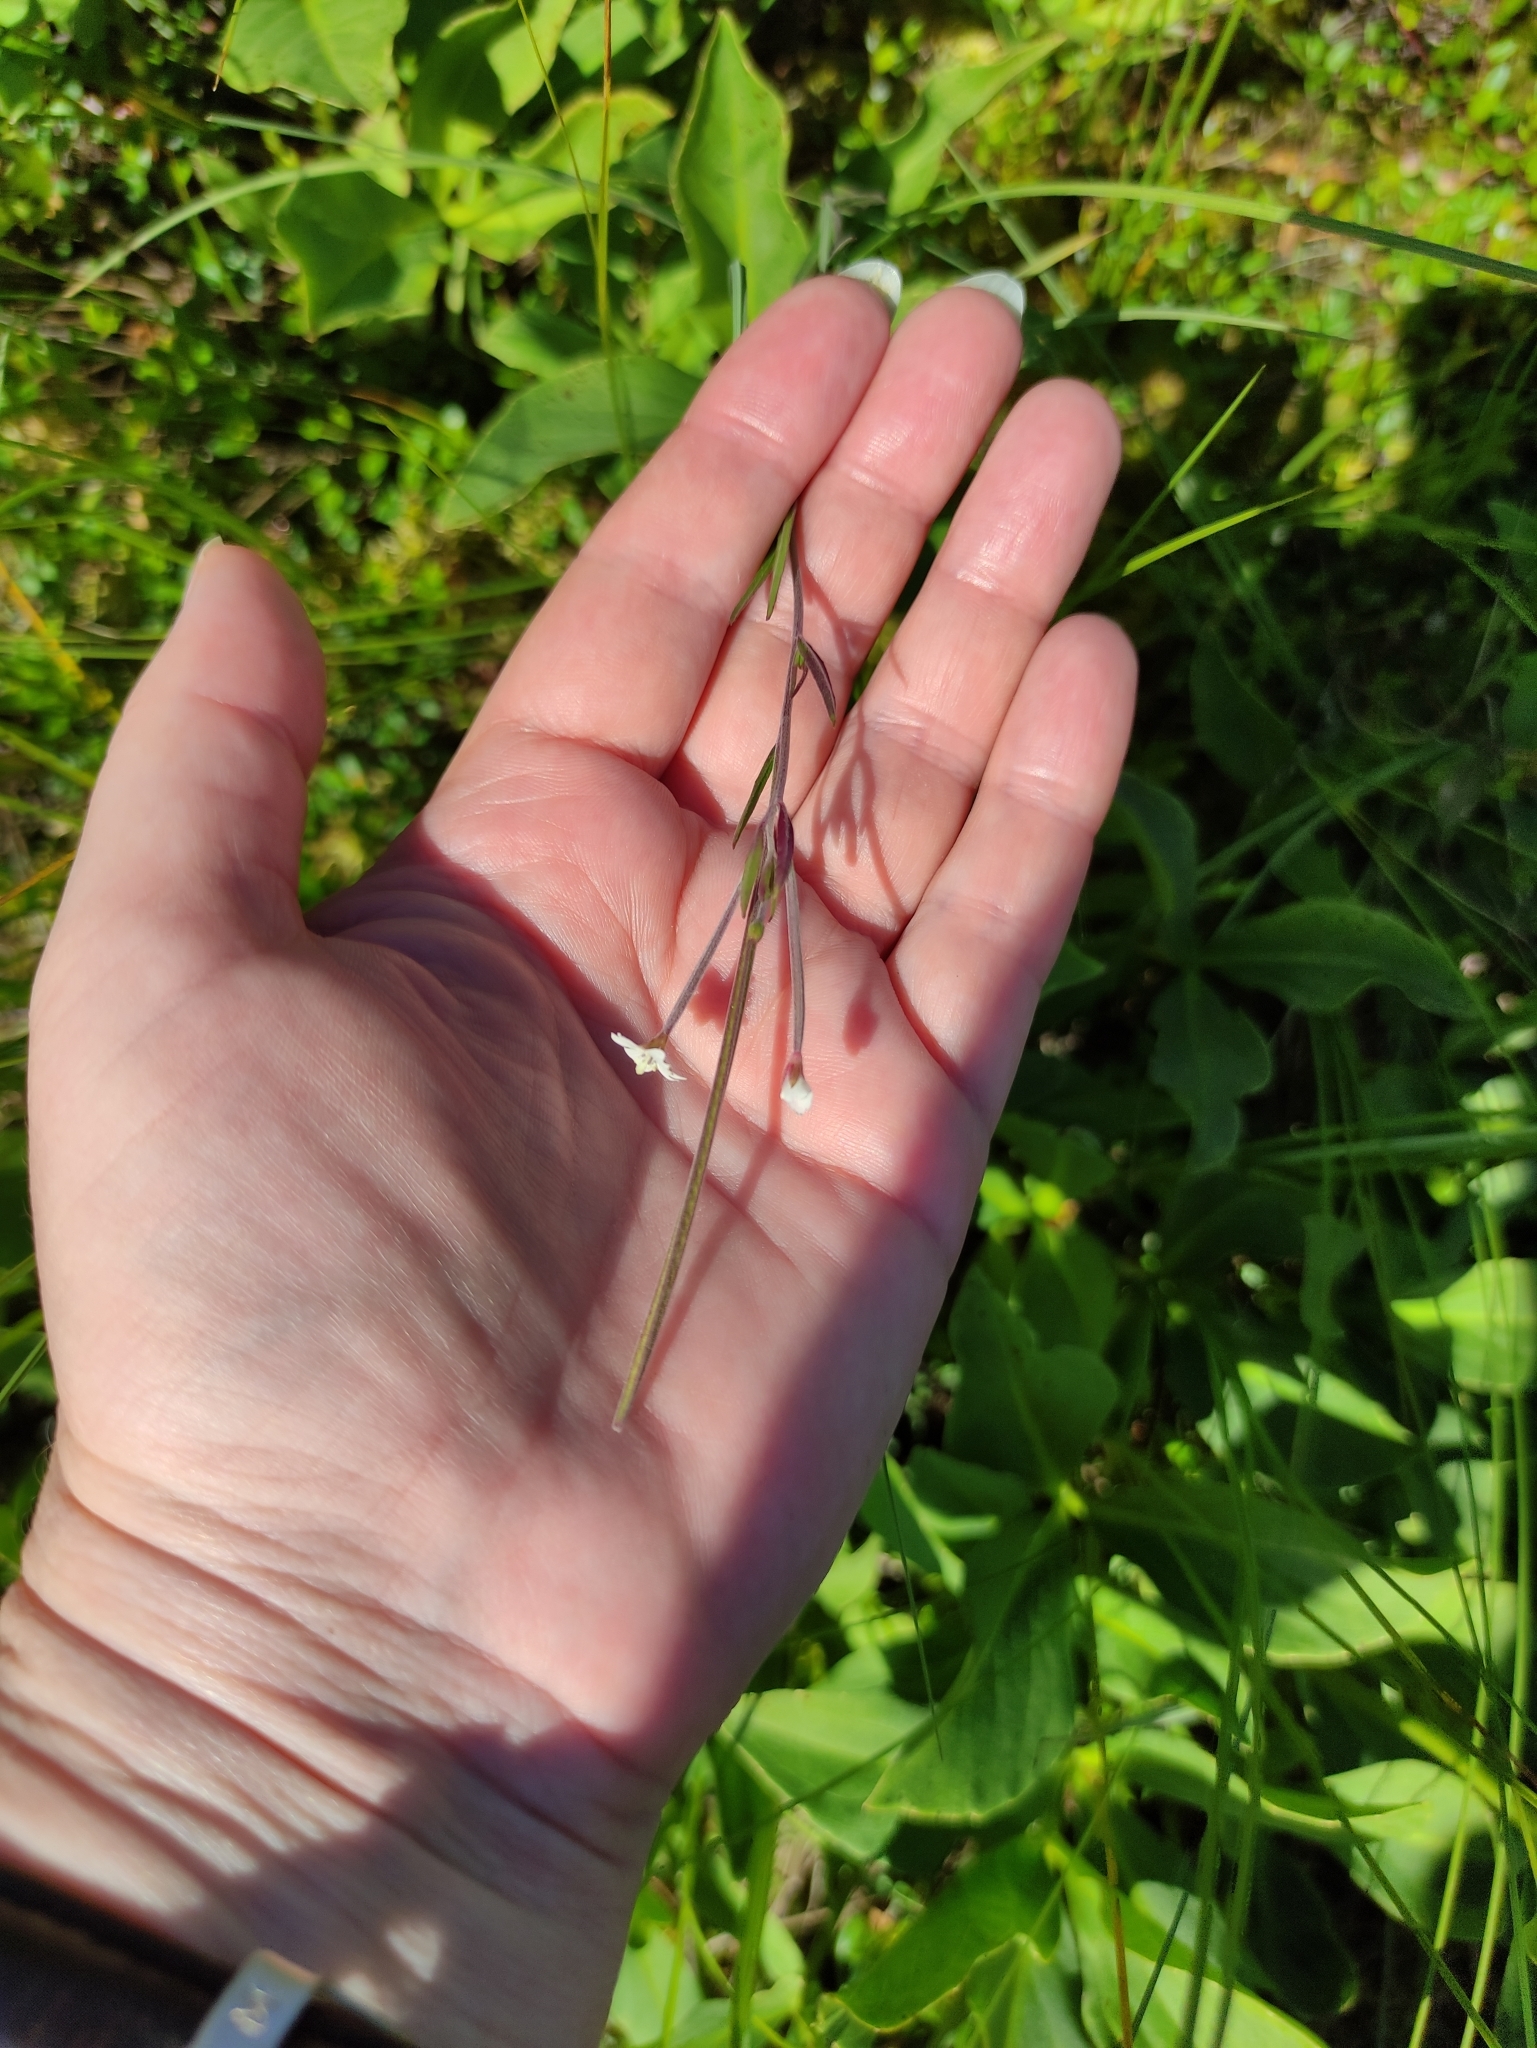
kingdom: Plantae
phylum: Tracheophyta
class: Magnoliopsida
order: Myrtales
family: Onagraceae
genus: Epilobium
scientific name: Epilobium palustre
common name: Marsh willowherb
